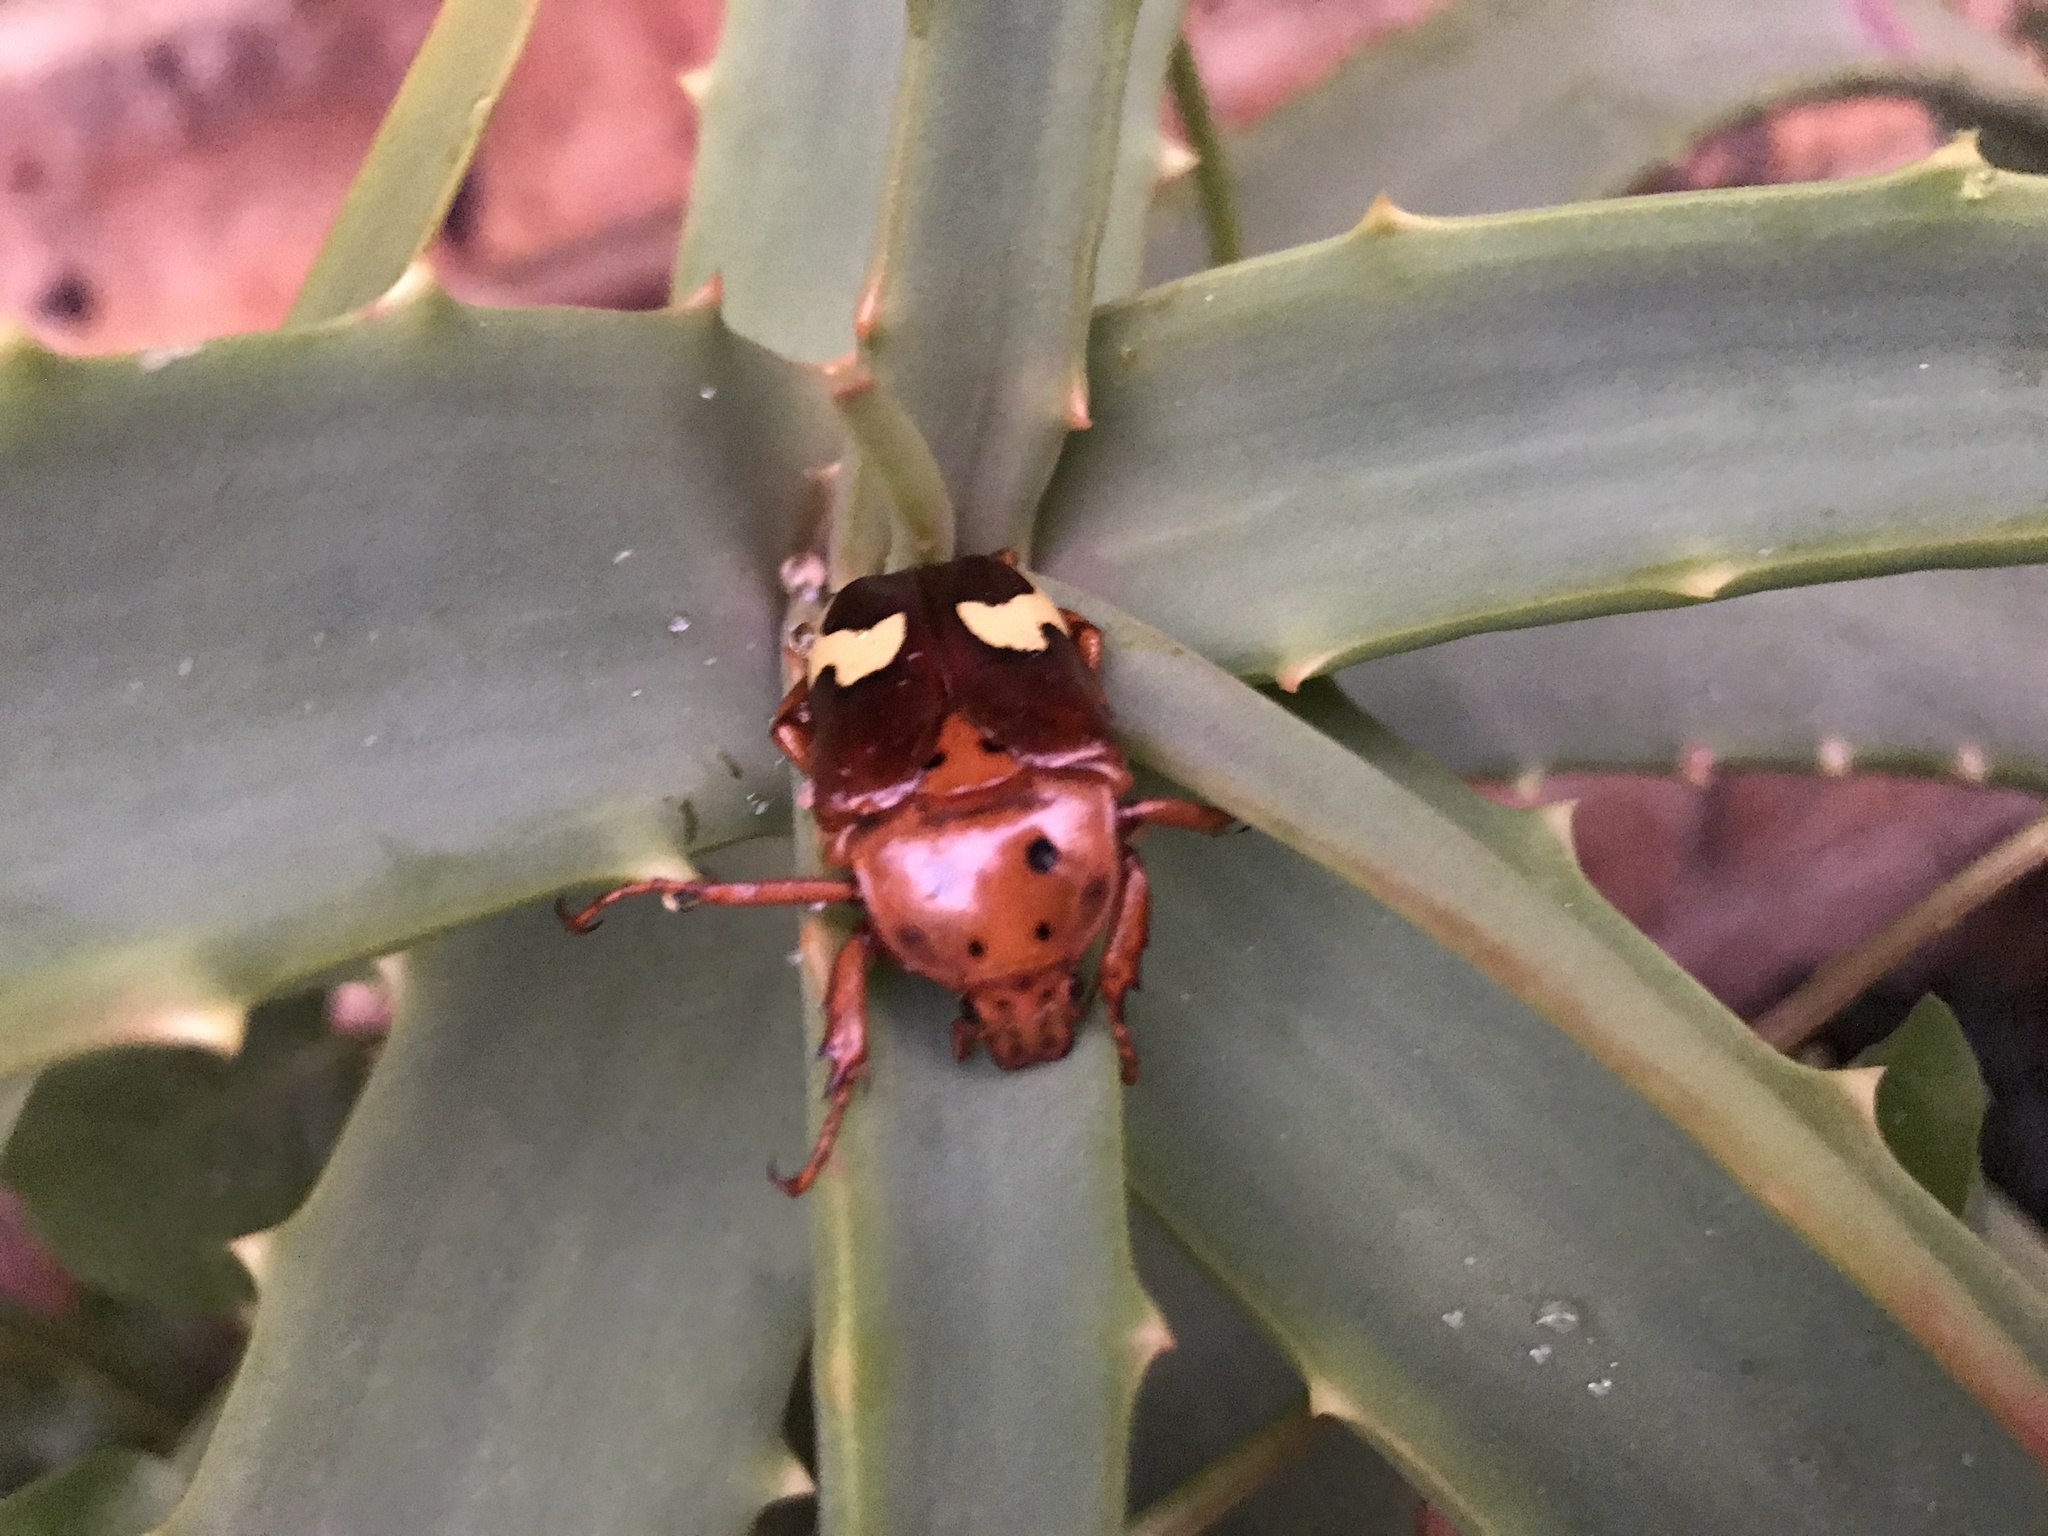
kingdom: Animalia
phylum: Arthropoda
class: Insecta
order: Coleoptera
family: Scarabaeidae
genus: Anisorrhina
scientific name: Anisorrhina flavomaculata
